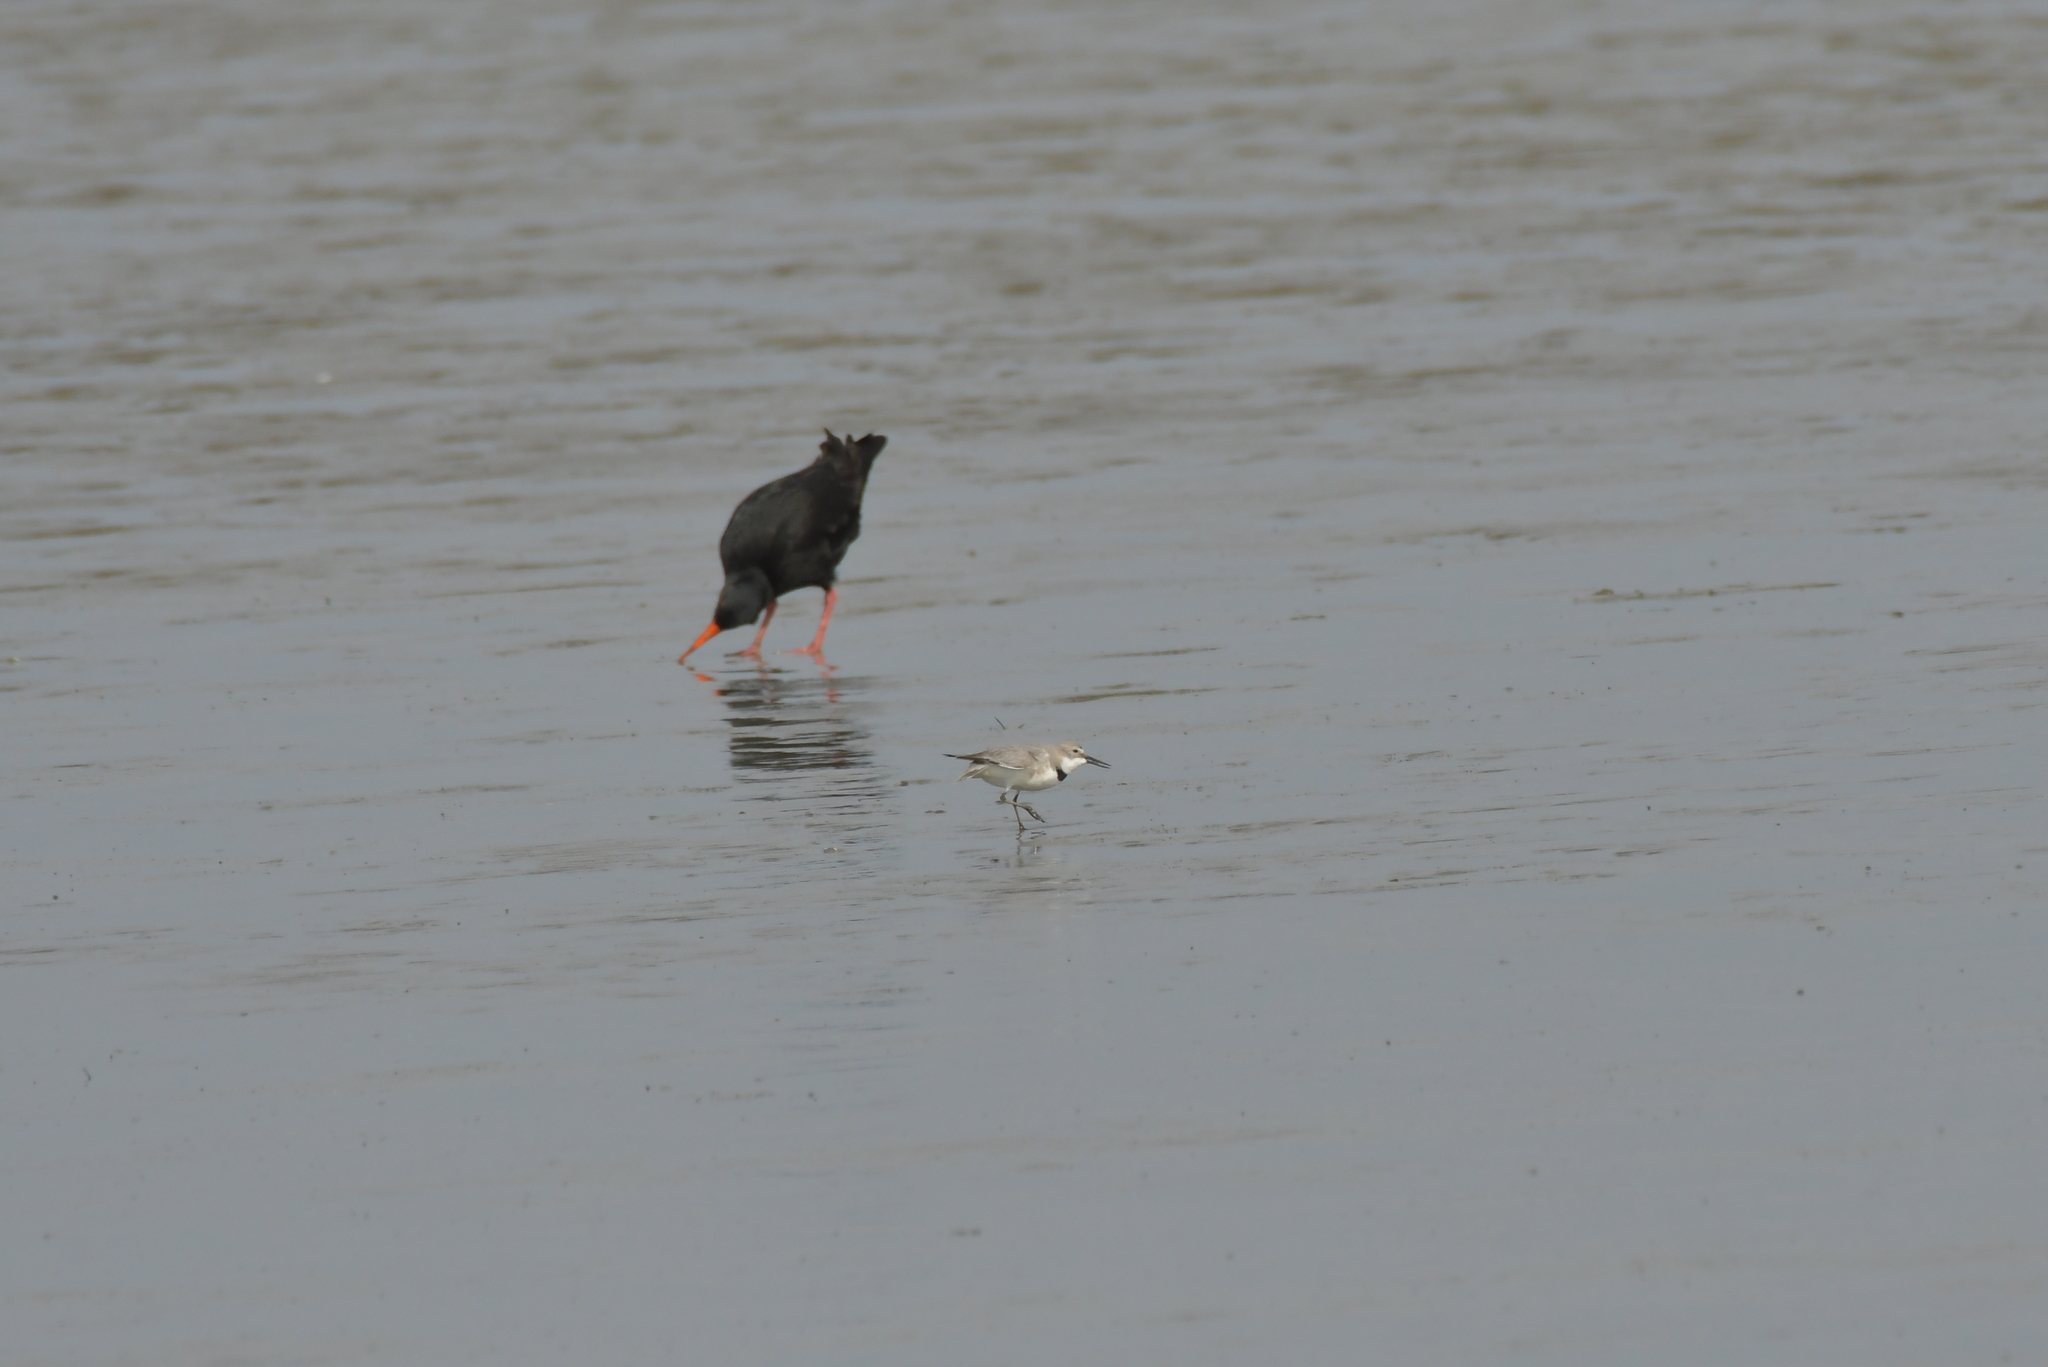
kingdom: Animalia
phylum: Chordata
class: Aves
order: Charadriiformes
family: Charadriidae
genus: Anarhynchus
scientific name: Anarhynchus frontalis
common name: Wrybill
